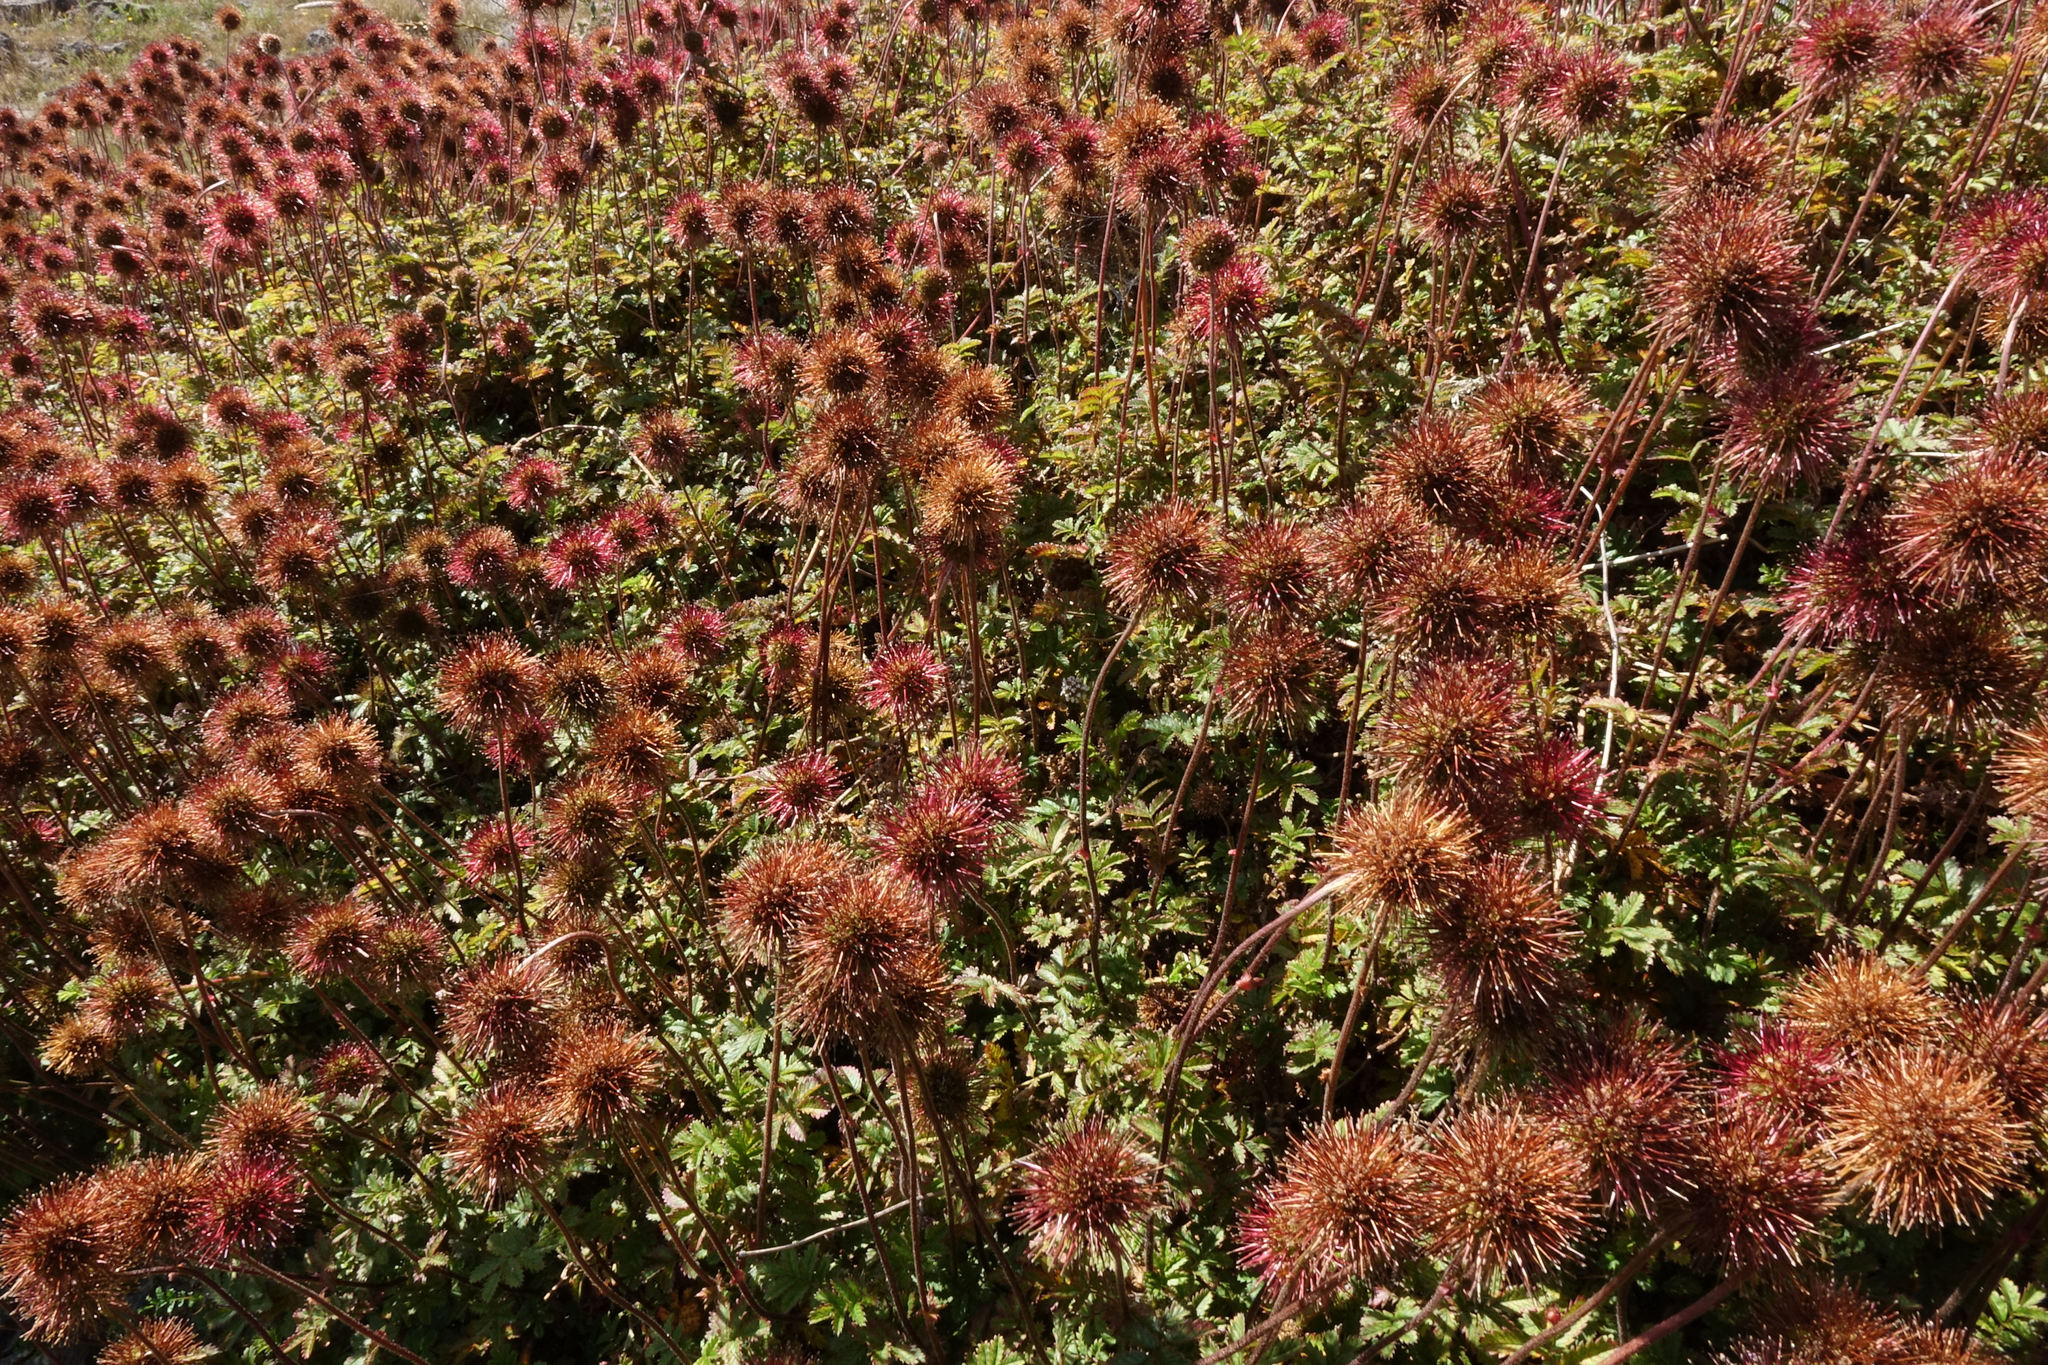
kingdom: Plantae
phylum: Tracheophyta
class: Magnoliopsida
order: Rosales
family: Rosaceae
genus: Acaena
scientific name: Acaena anserinifolia
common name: Bronze pirri-pirri-bur
